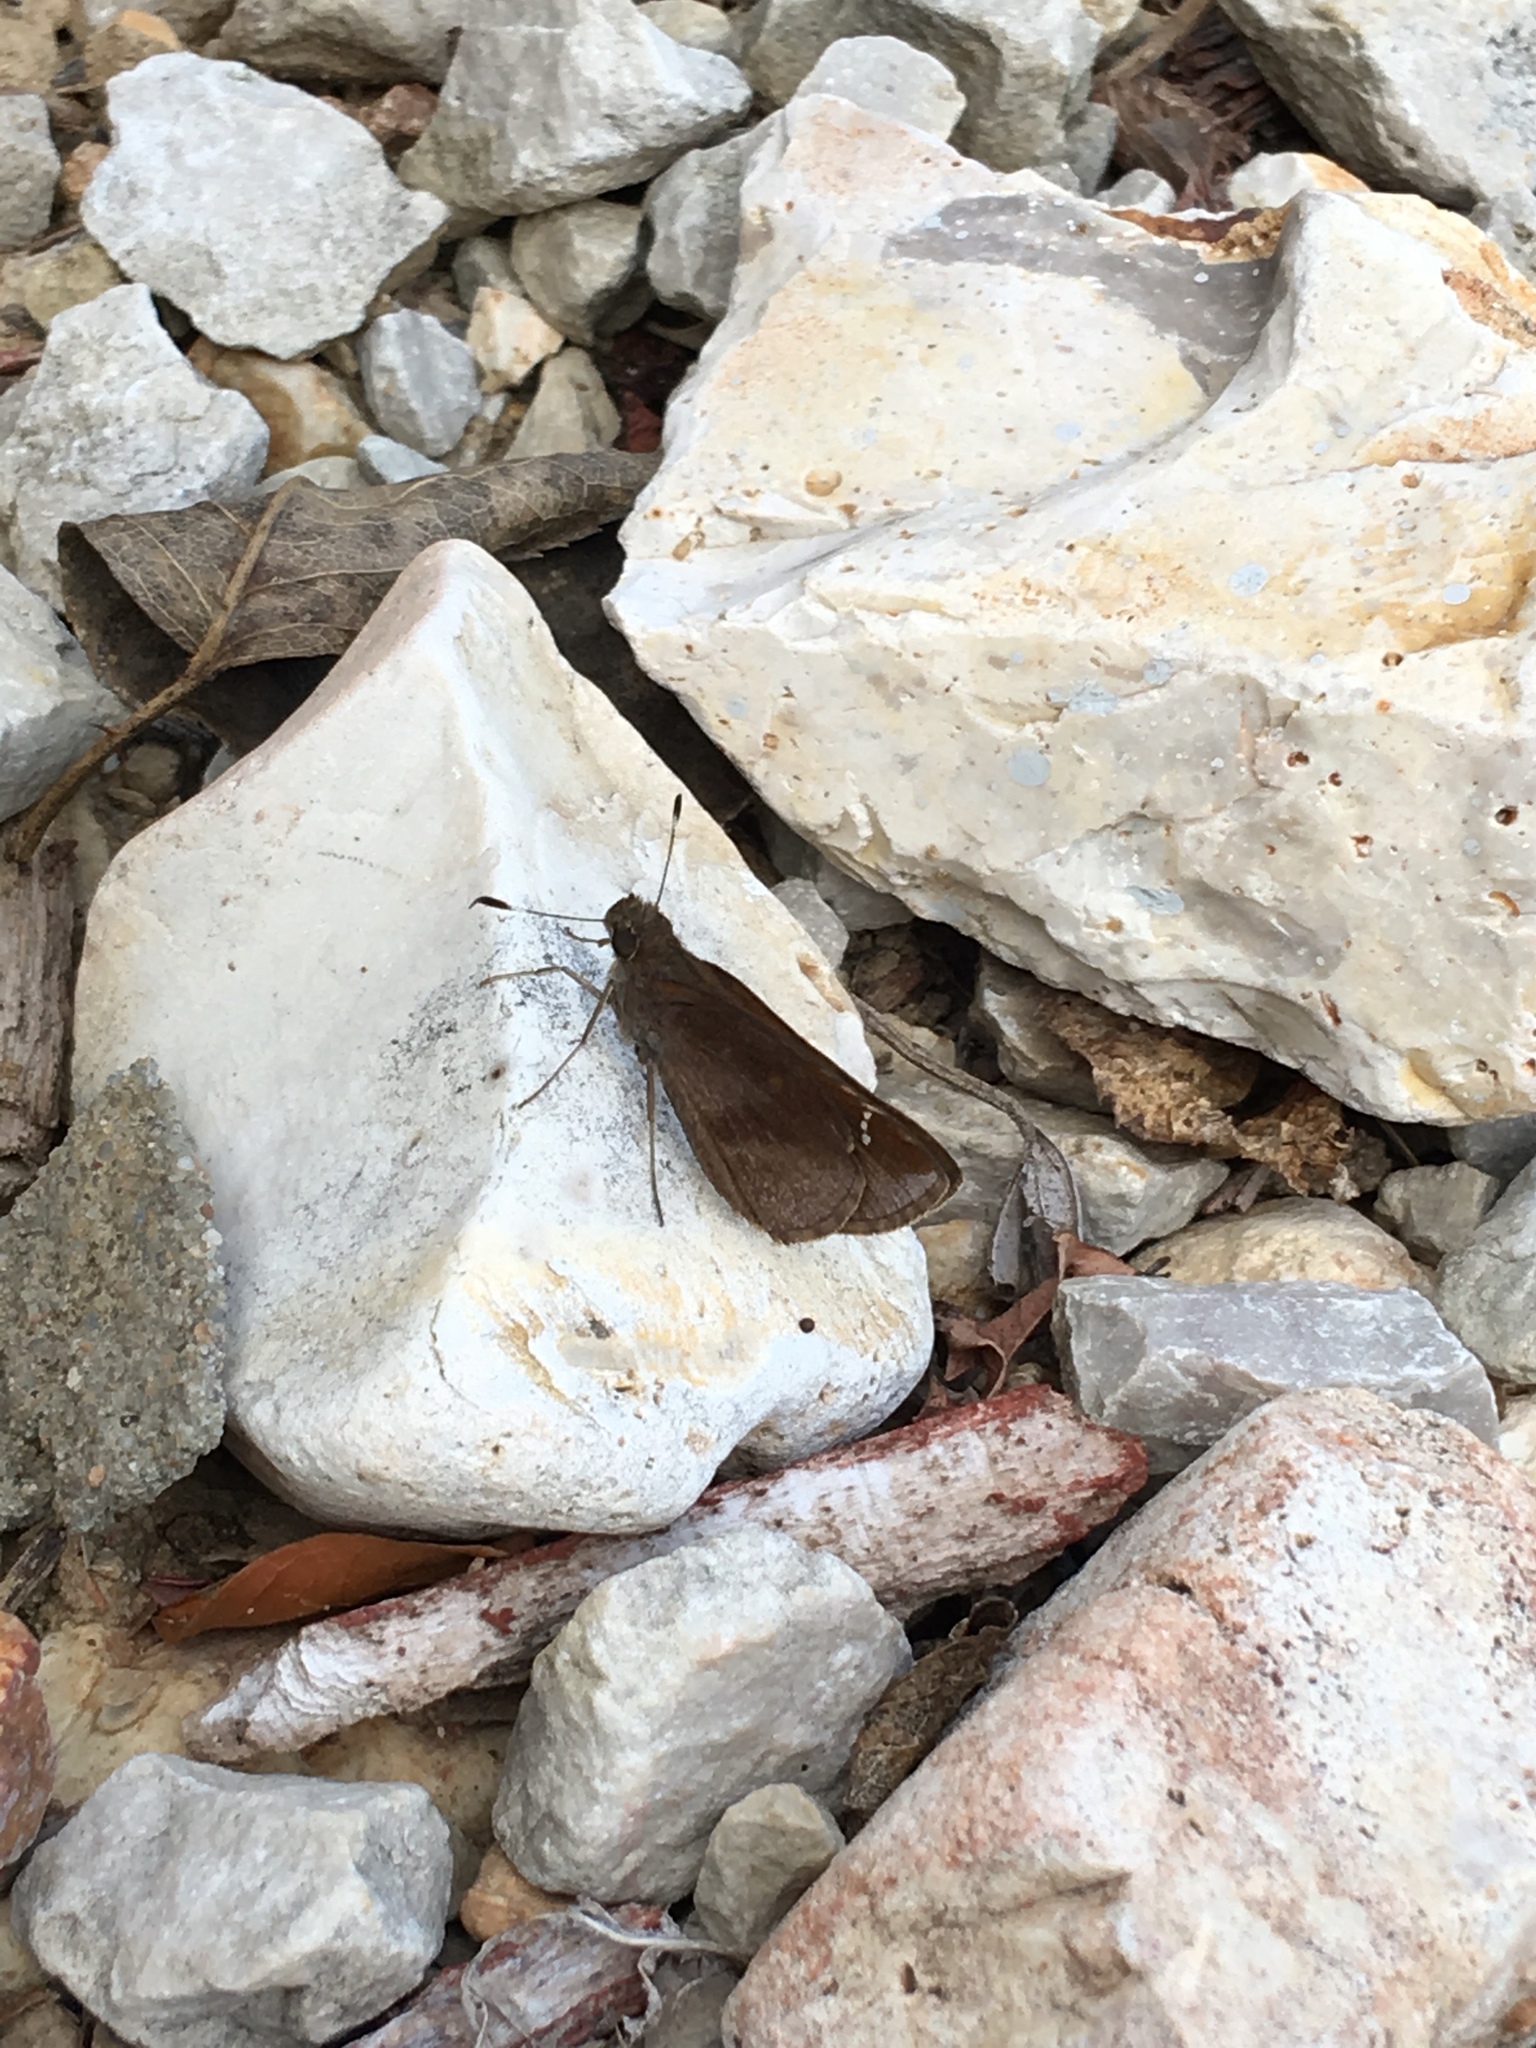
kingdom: Animalia
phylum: Arthropoda
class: Insecta
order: Lepidoptera
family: Hesperiidae
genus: Lerema
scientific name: Lerema accius
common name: Clouded skipper
